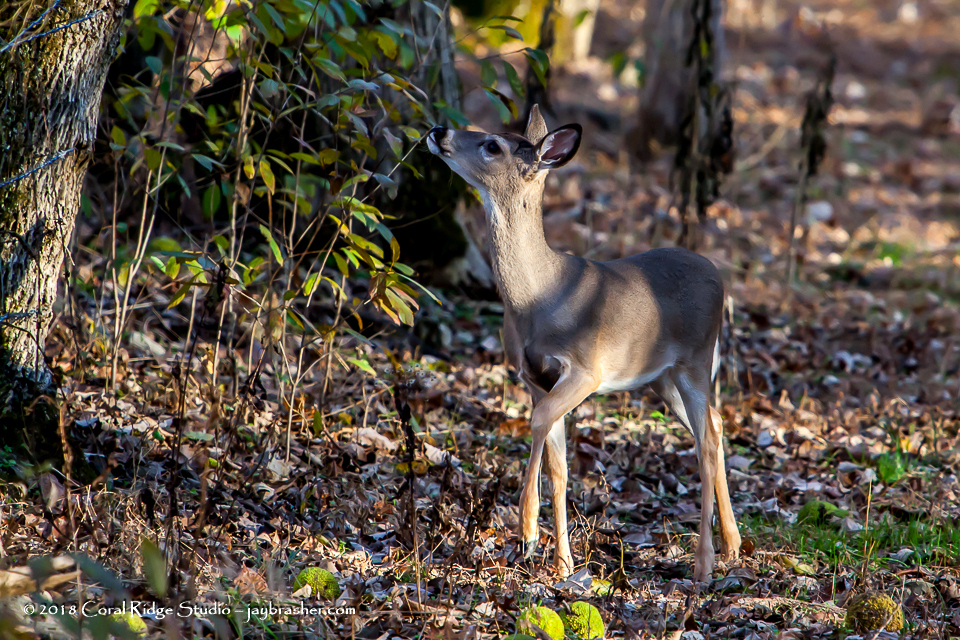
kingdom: Animalia
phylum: Chordata
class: Mammalia
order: Artiodactyla
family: Cervidae
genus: Odocoileus
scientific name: Odocoileus virginianus
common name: White-tailed deer
